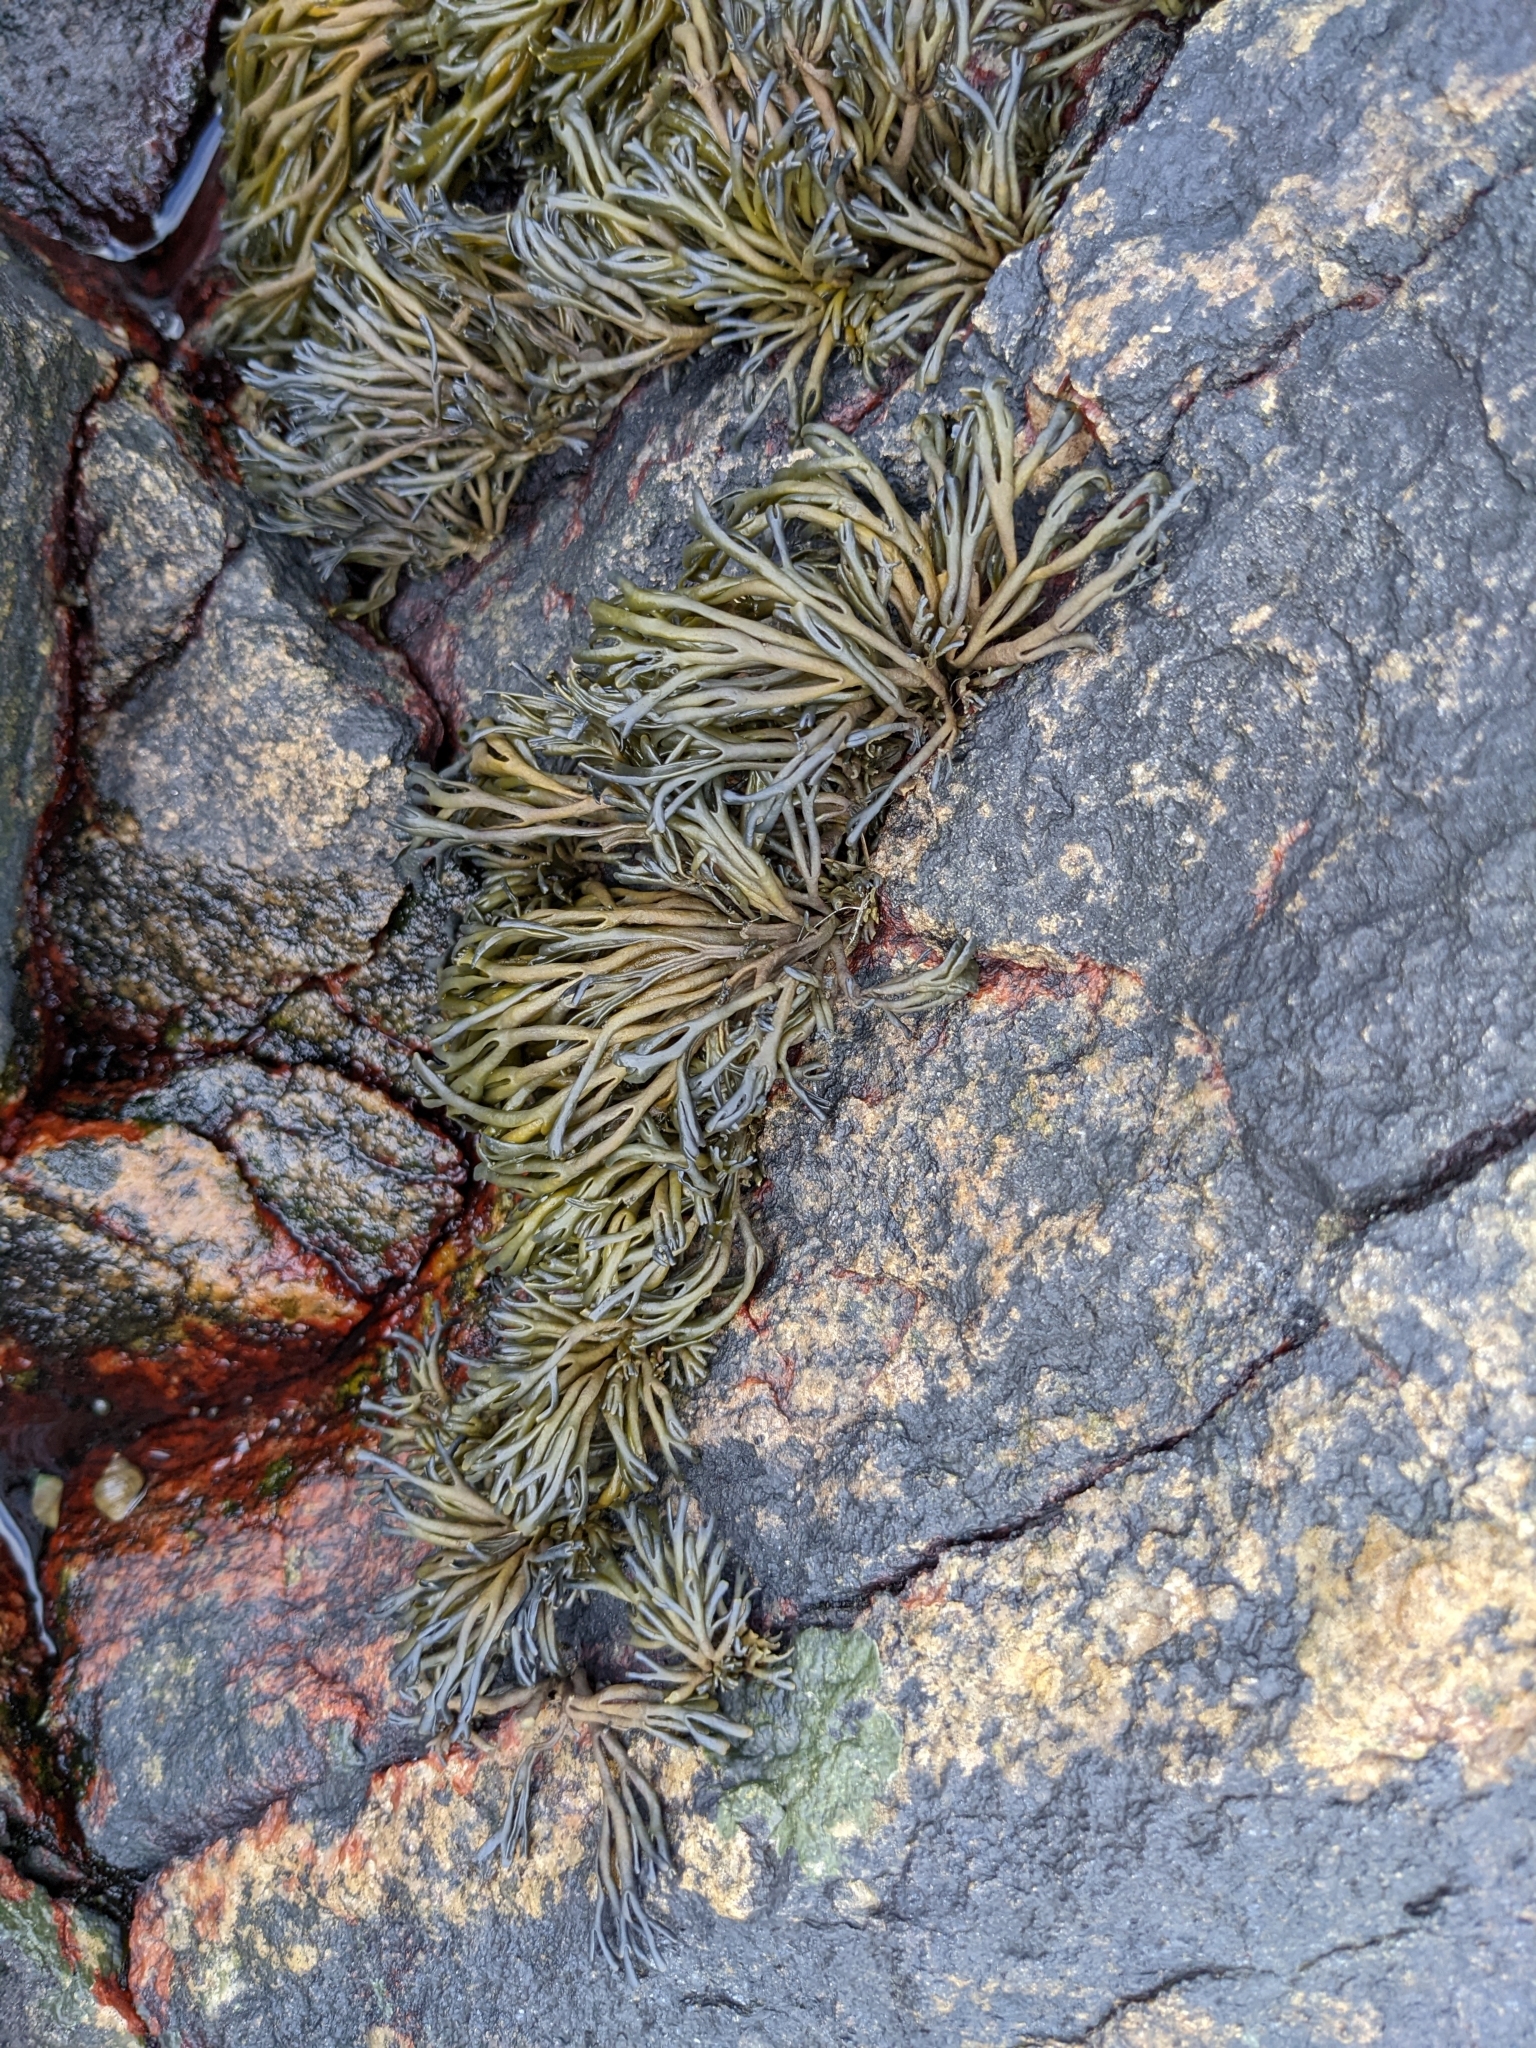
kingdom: Chromista
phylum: Ochrophyta
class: Phaeophyceae
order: Fucales
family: Fucaceae
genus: Pelvetia
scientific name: Pelvetia canaliculata
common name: Channelled wrack
